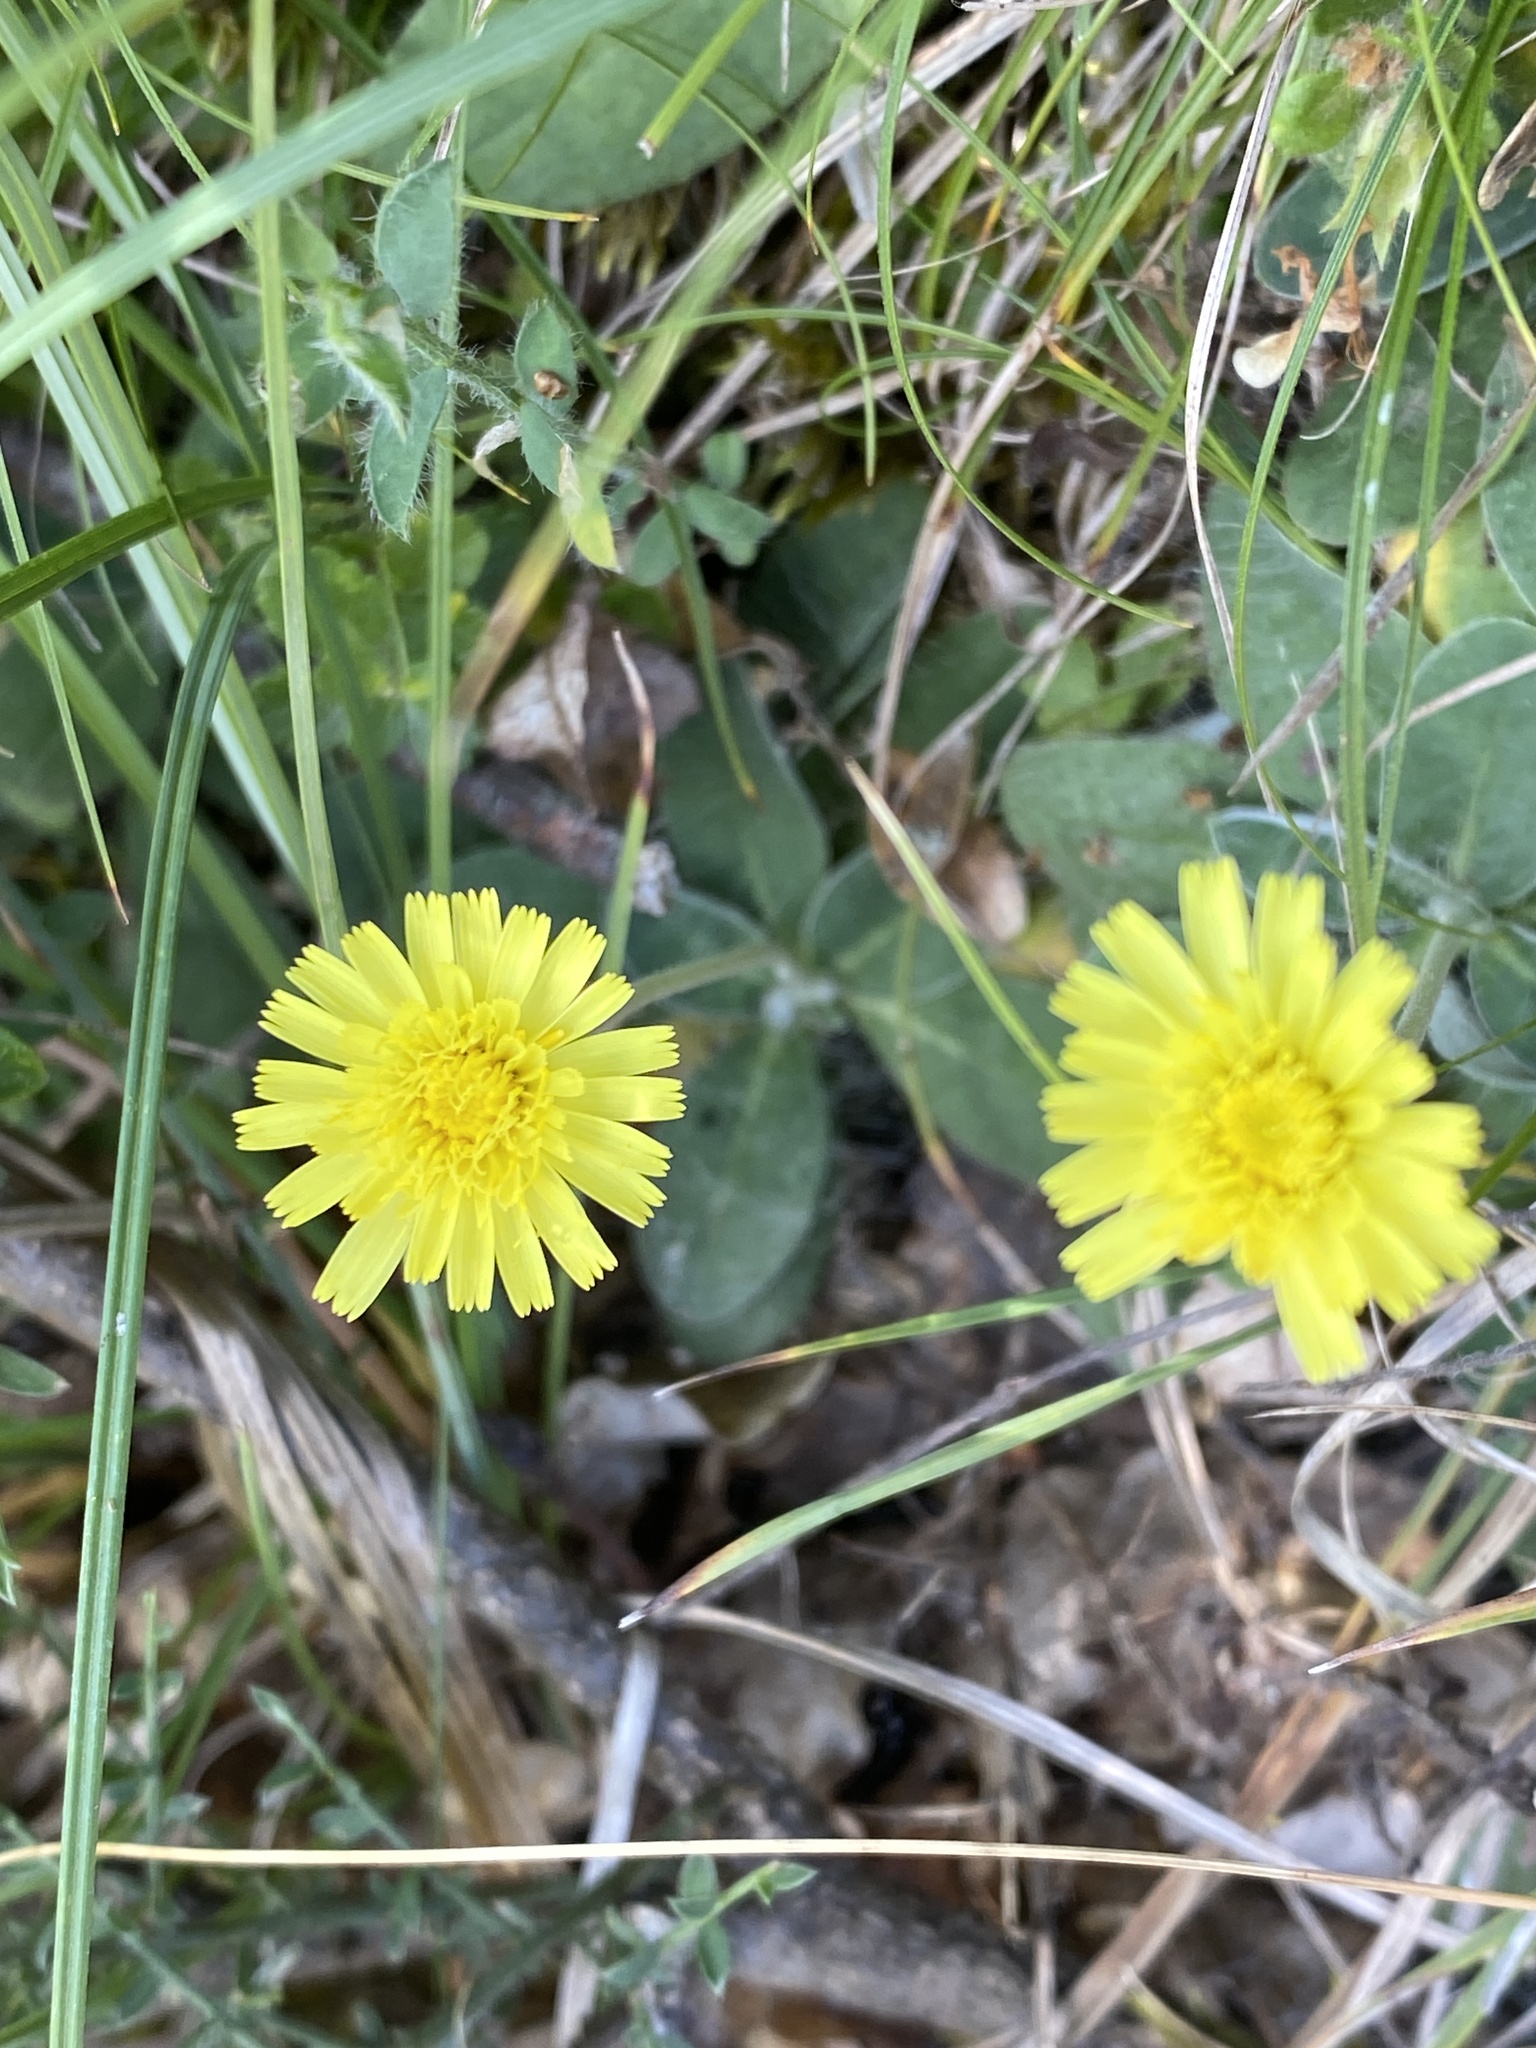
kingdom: Plantae
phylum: Tracheophyta
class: Magnoliopsida
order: Asterales
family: Asteraceae
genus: Pilosella
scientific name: Pilosella officinarum
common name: Mouse-ear hawkweed
